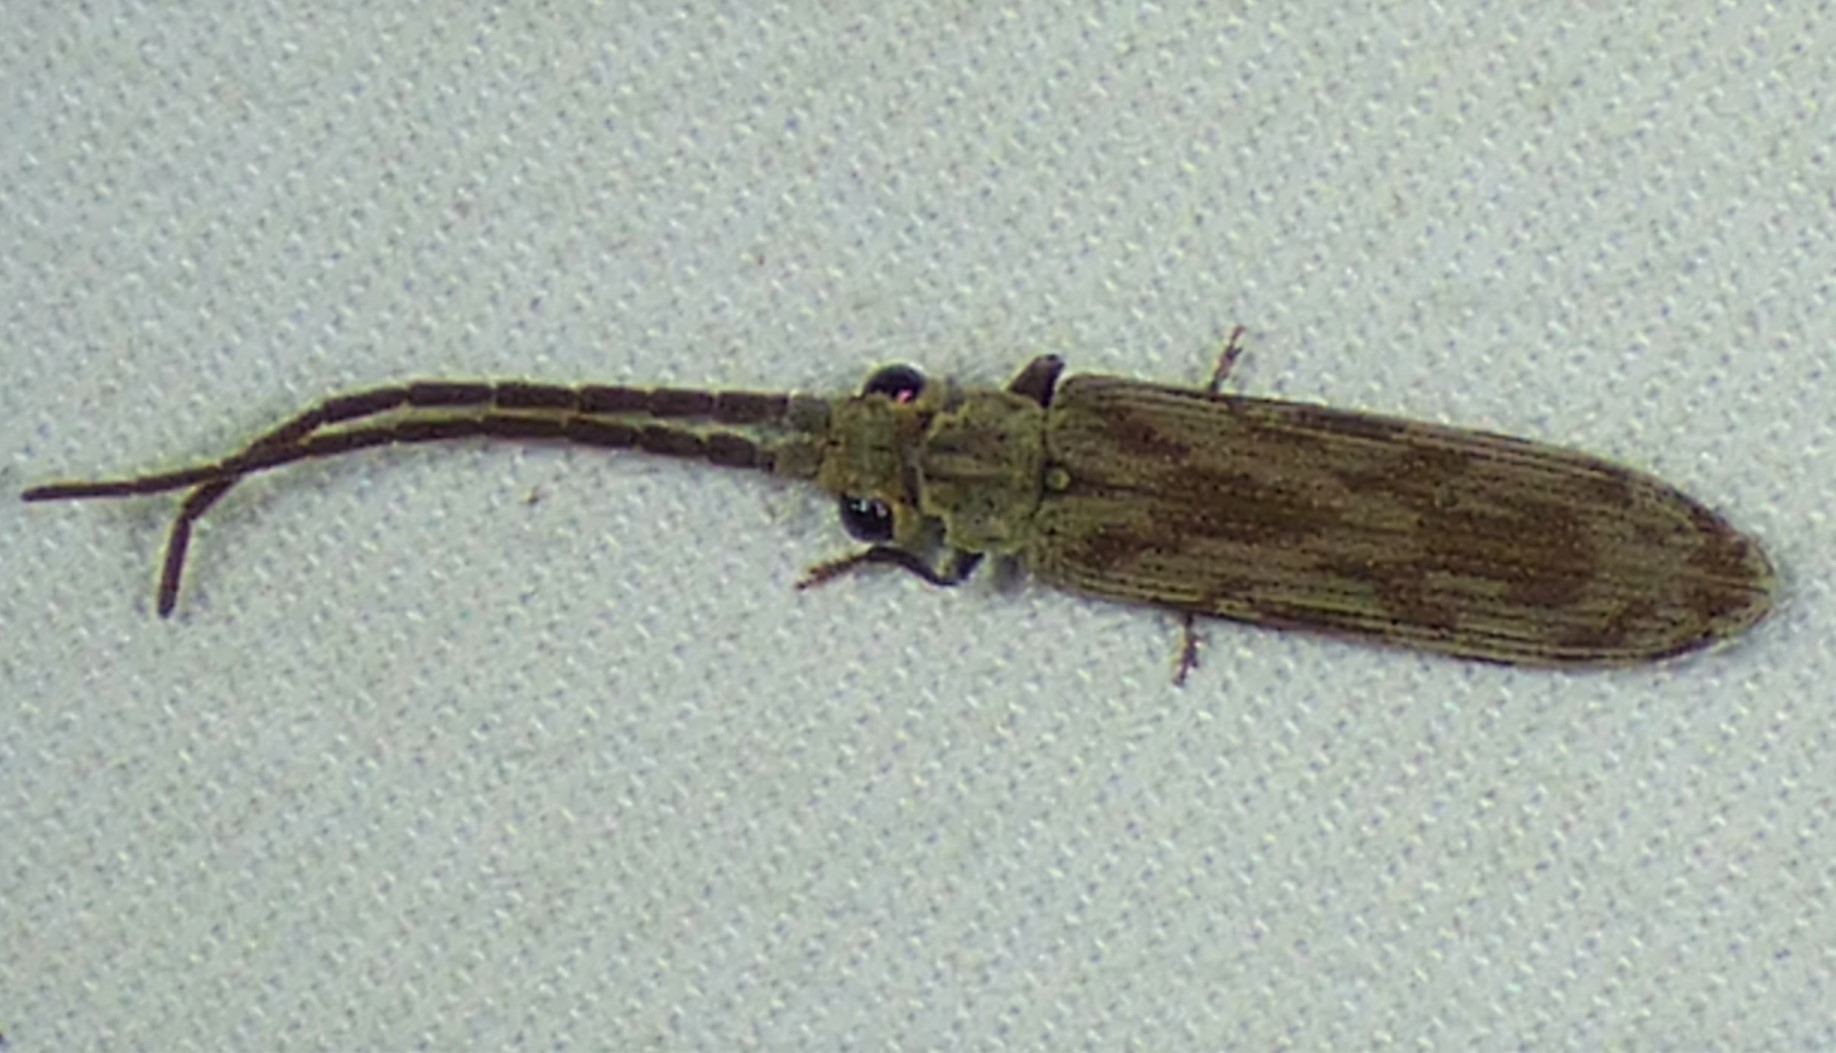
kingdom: Animalia
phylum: Arthropoda
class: Insecta
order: Coleoptera
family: Cupedidae
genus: Tenomerga
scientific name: Tenomerga cinerea
